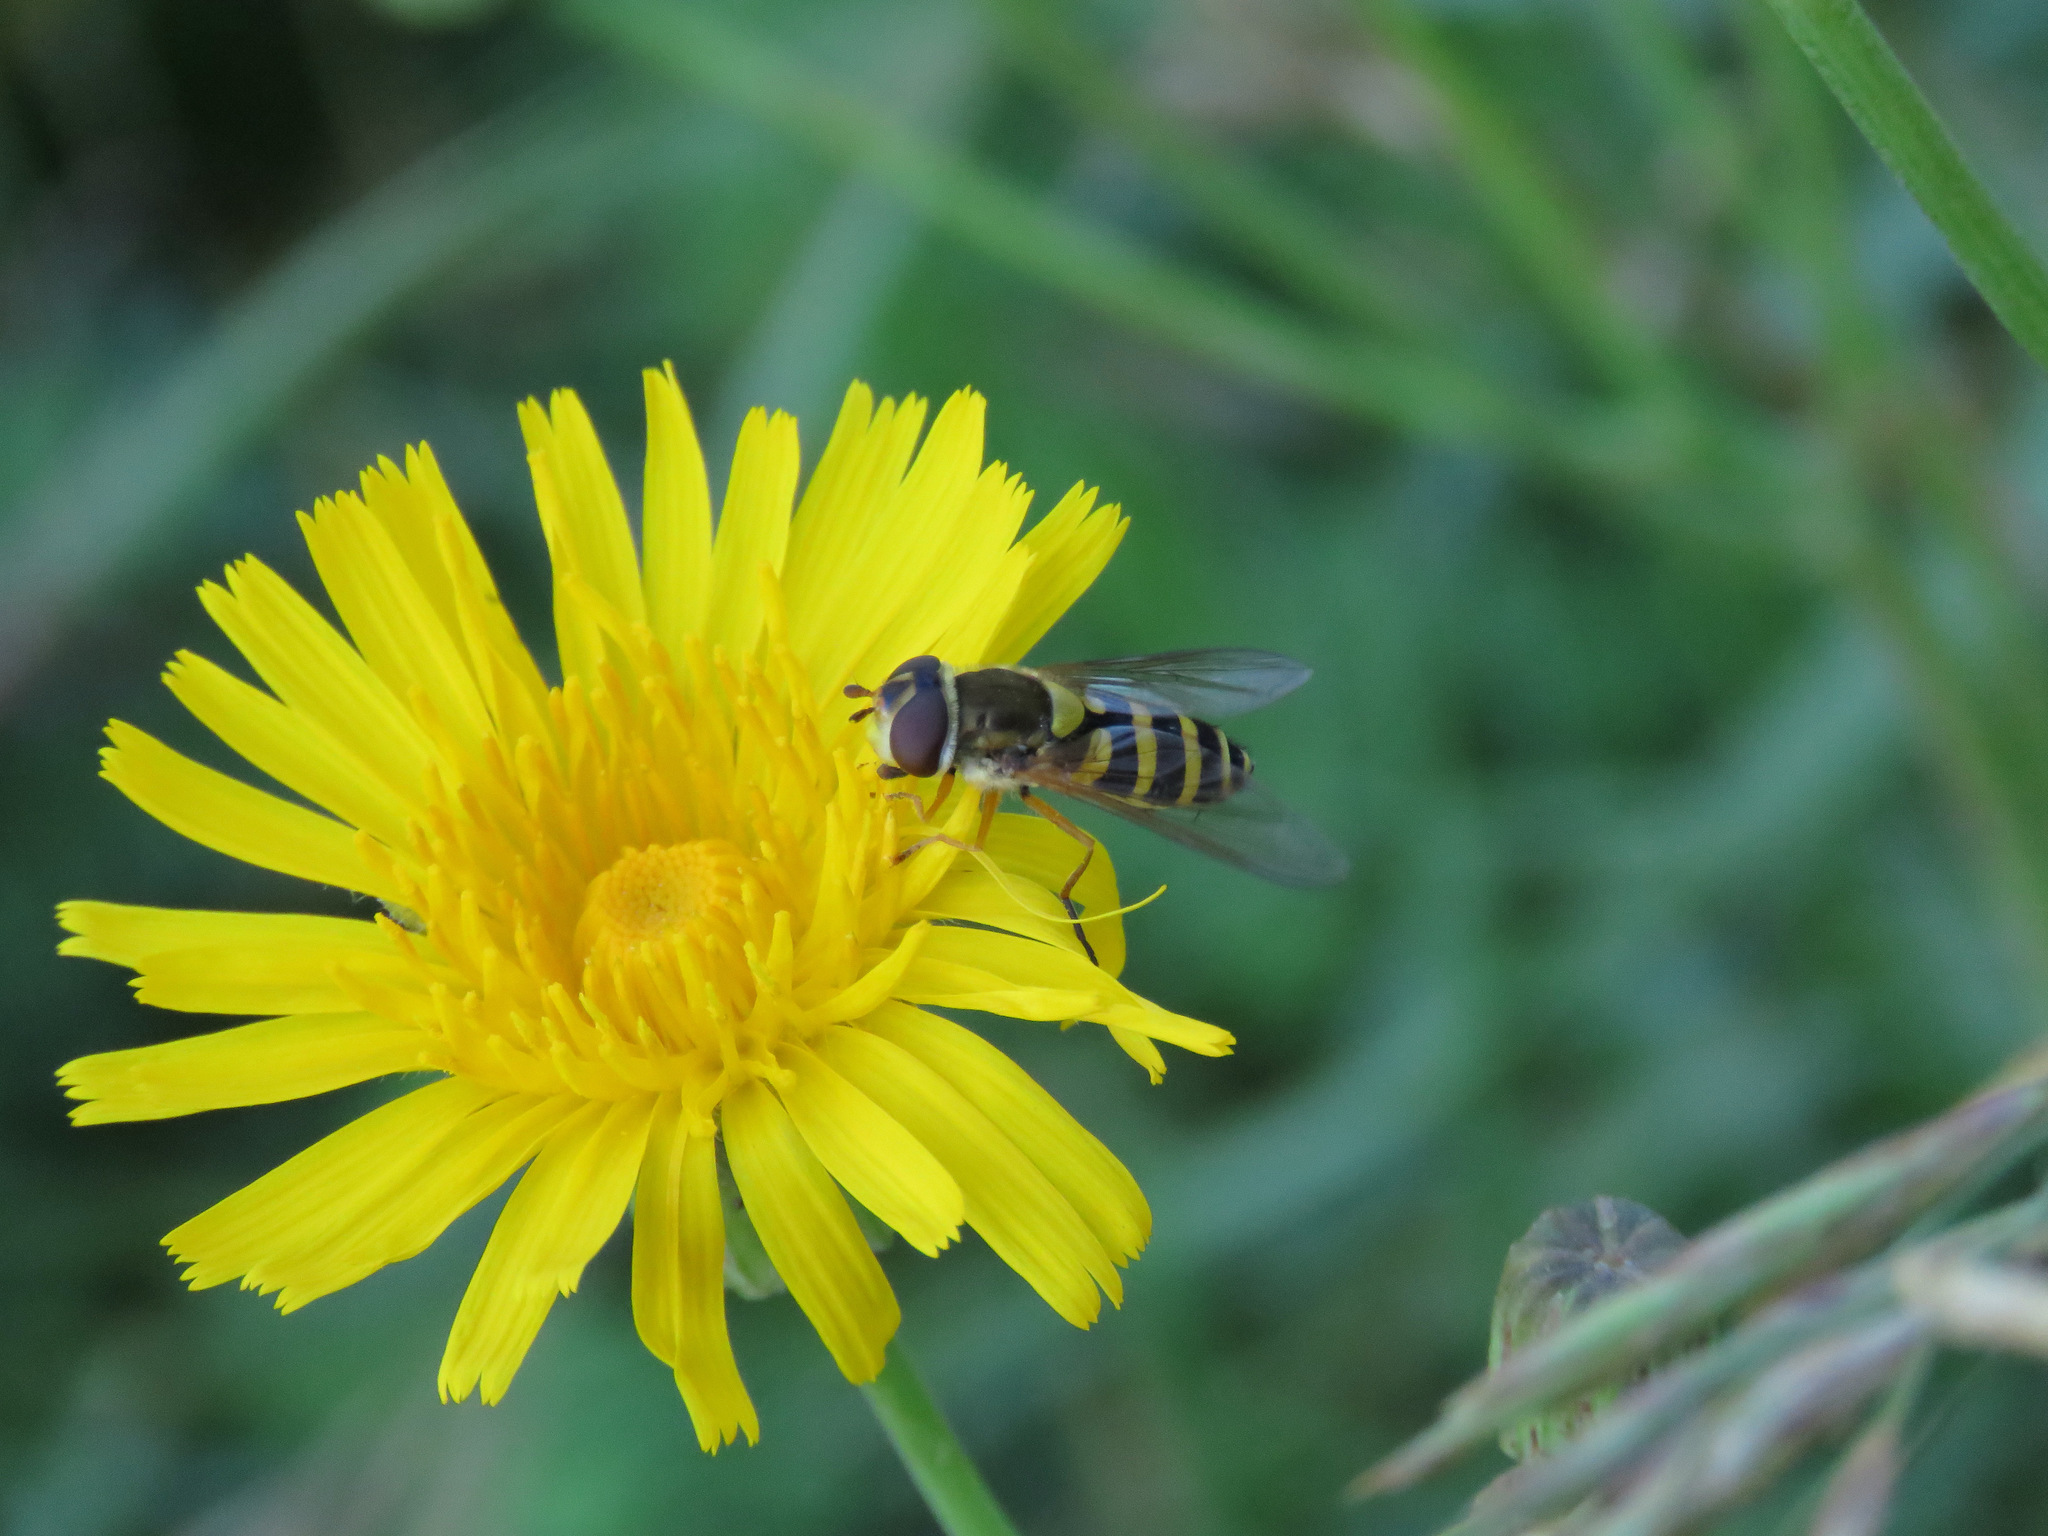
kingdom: Animalia
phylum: Arthropoda
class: Insecta
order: Diptera
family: Syrphidae
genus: Syrphus
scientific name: Syrphus ribesii
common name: Common flower fly
